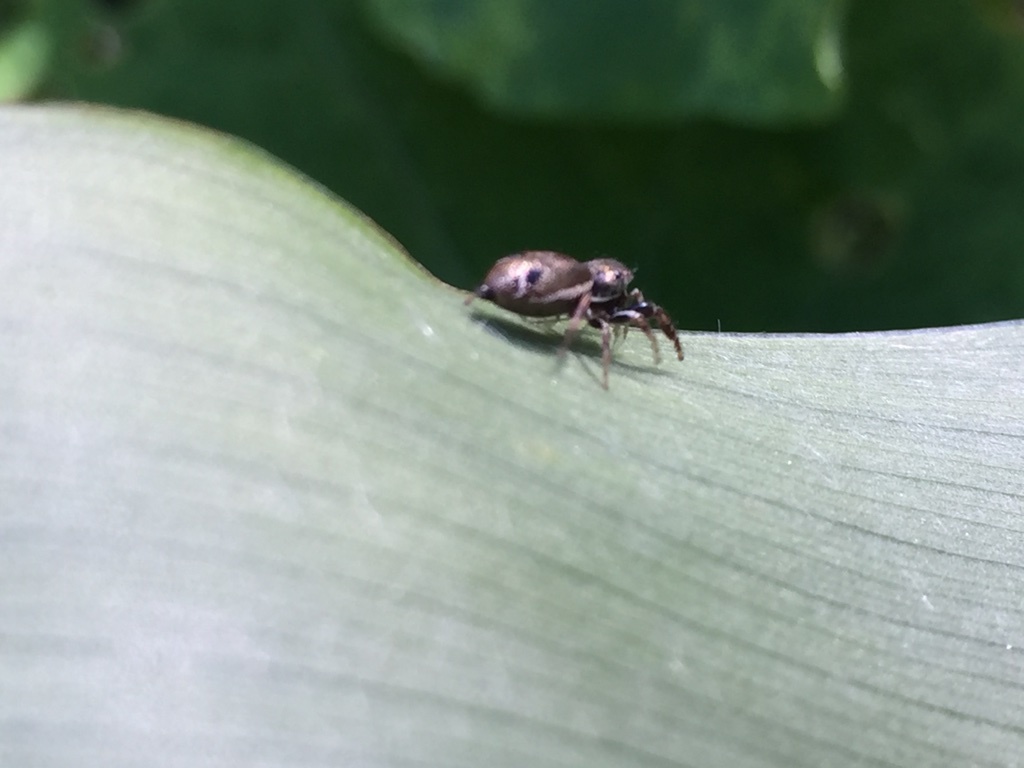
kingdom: Animalia
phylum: Arthropoda
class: Arachnida
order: Araneae
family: Salticidae
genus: Sassacus
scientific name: Sassacus vitis
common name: Jumping spiders
